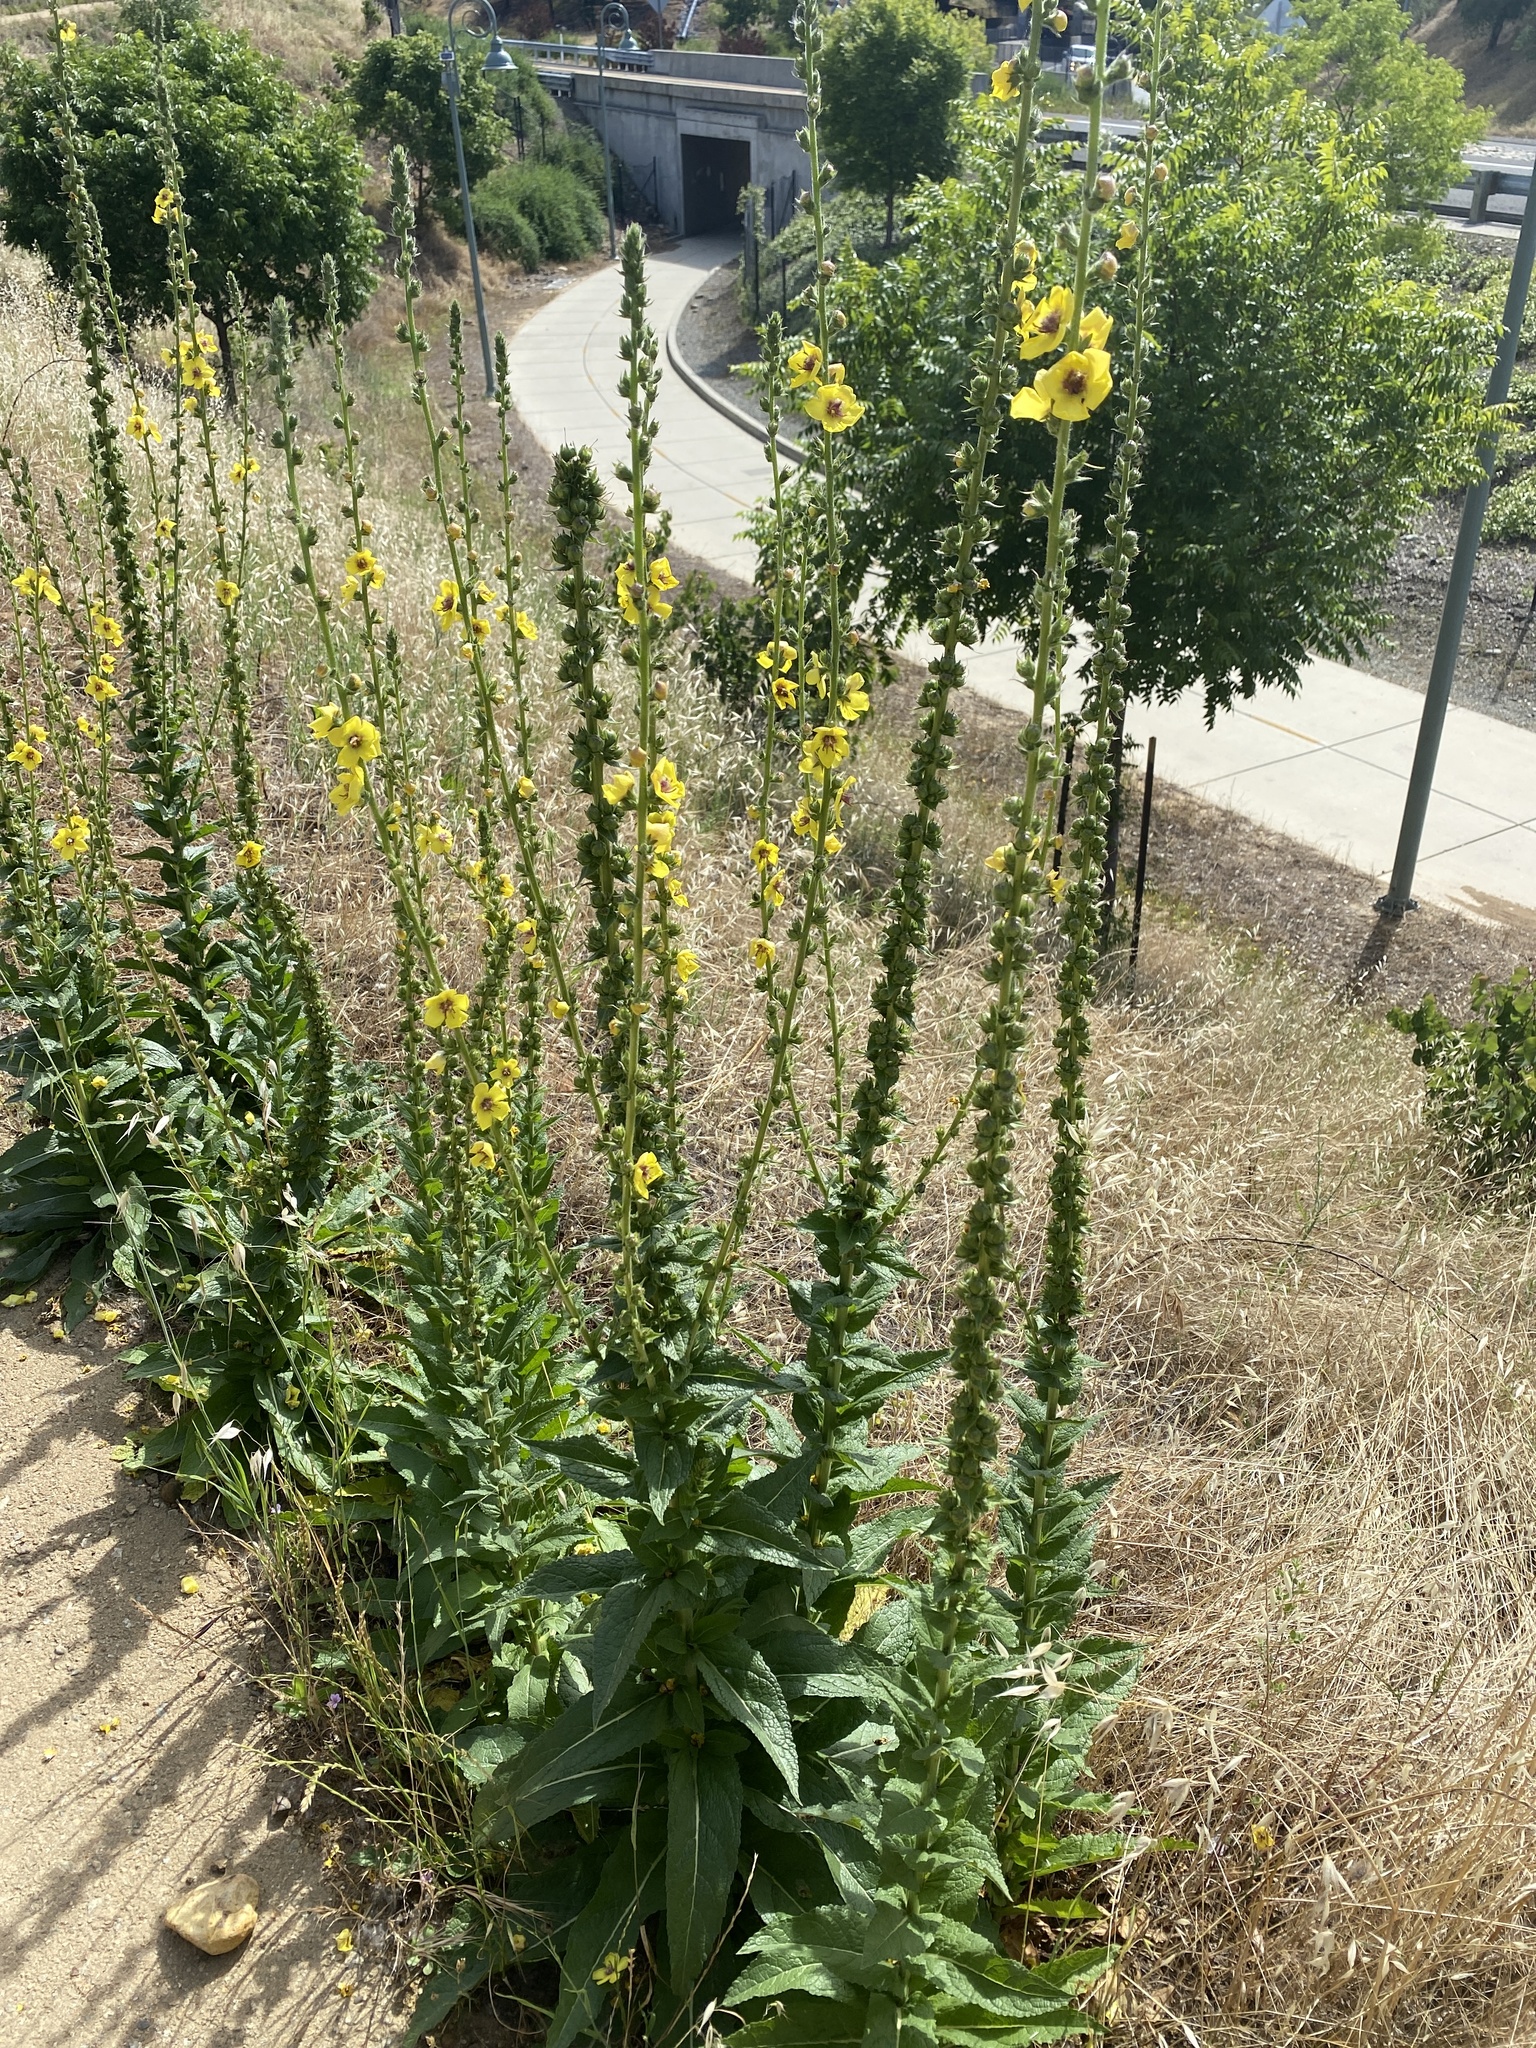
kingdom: Plantae
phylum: Tracheophyta
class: Magnoliopsida
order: Lamiales
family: Scrophulariaceae
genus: Verbascum
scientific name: Verbascum virgatum
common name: Twiggy mullein
